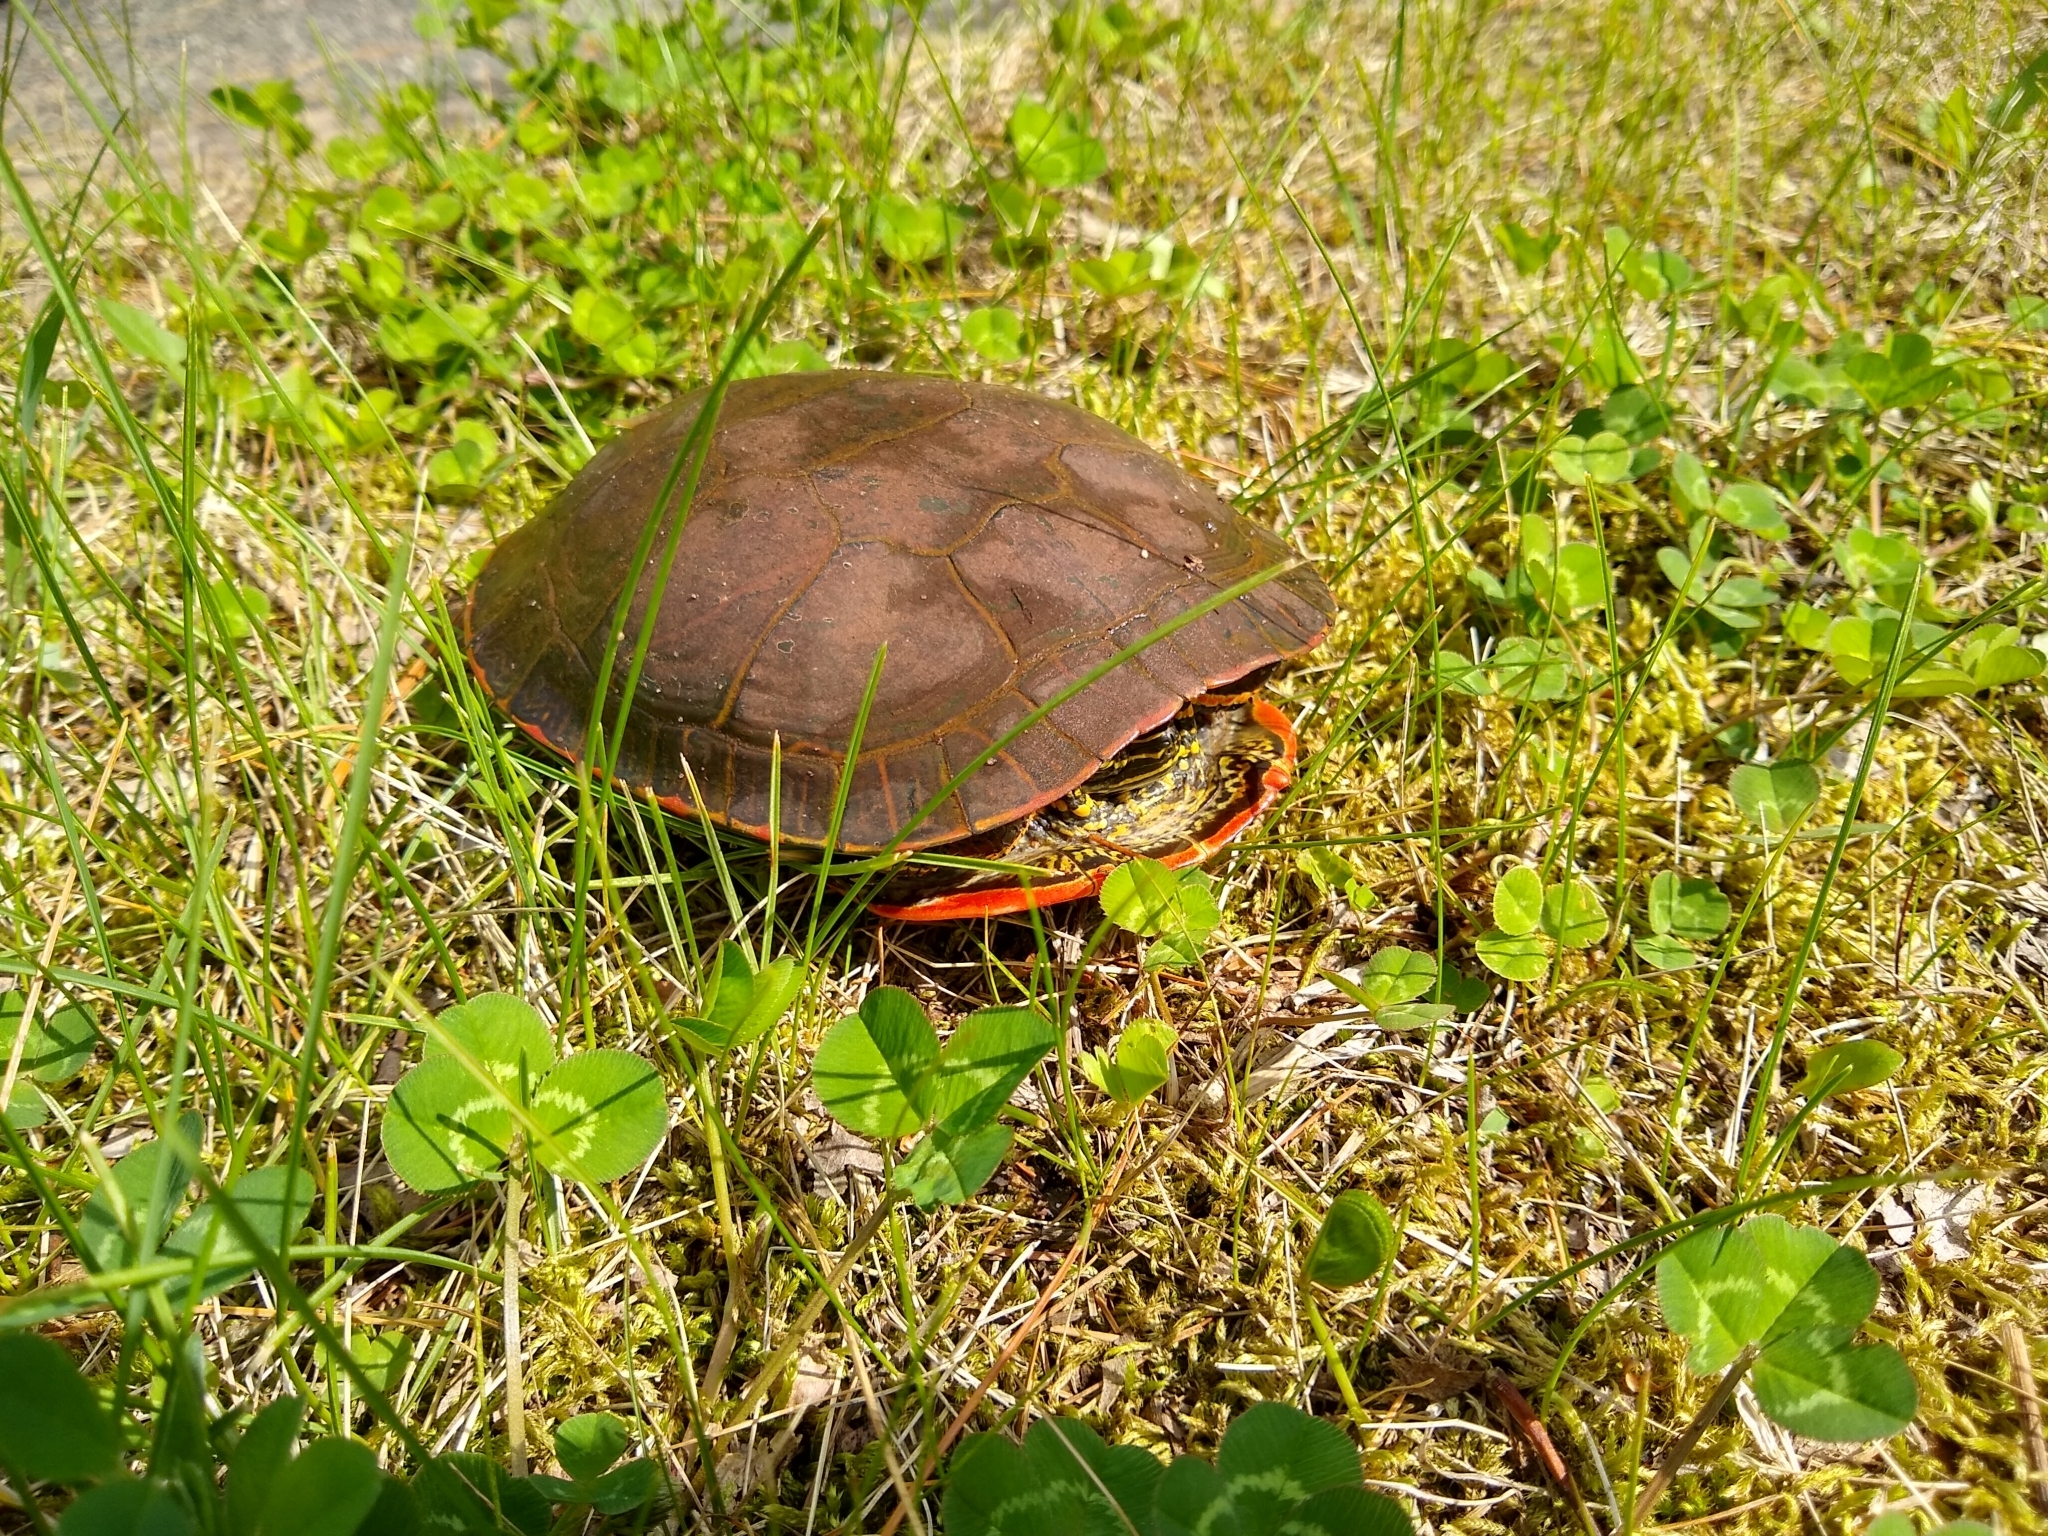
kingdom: Animalia
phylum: Chordata
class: Testudines
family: Emydidae
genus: Chrysemys
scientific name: Chrysemys picta
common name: Painted turtle
